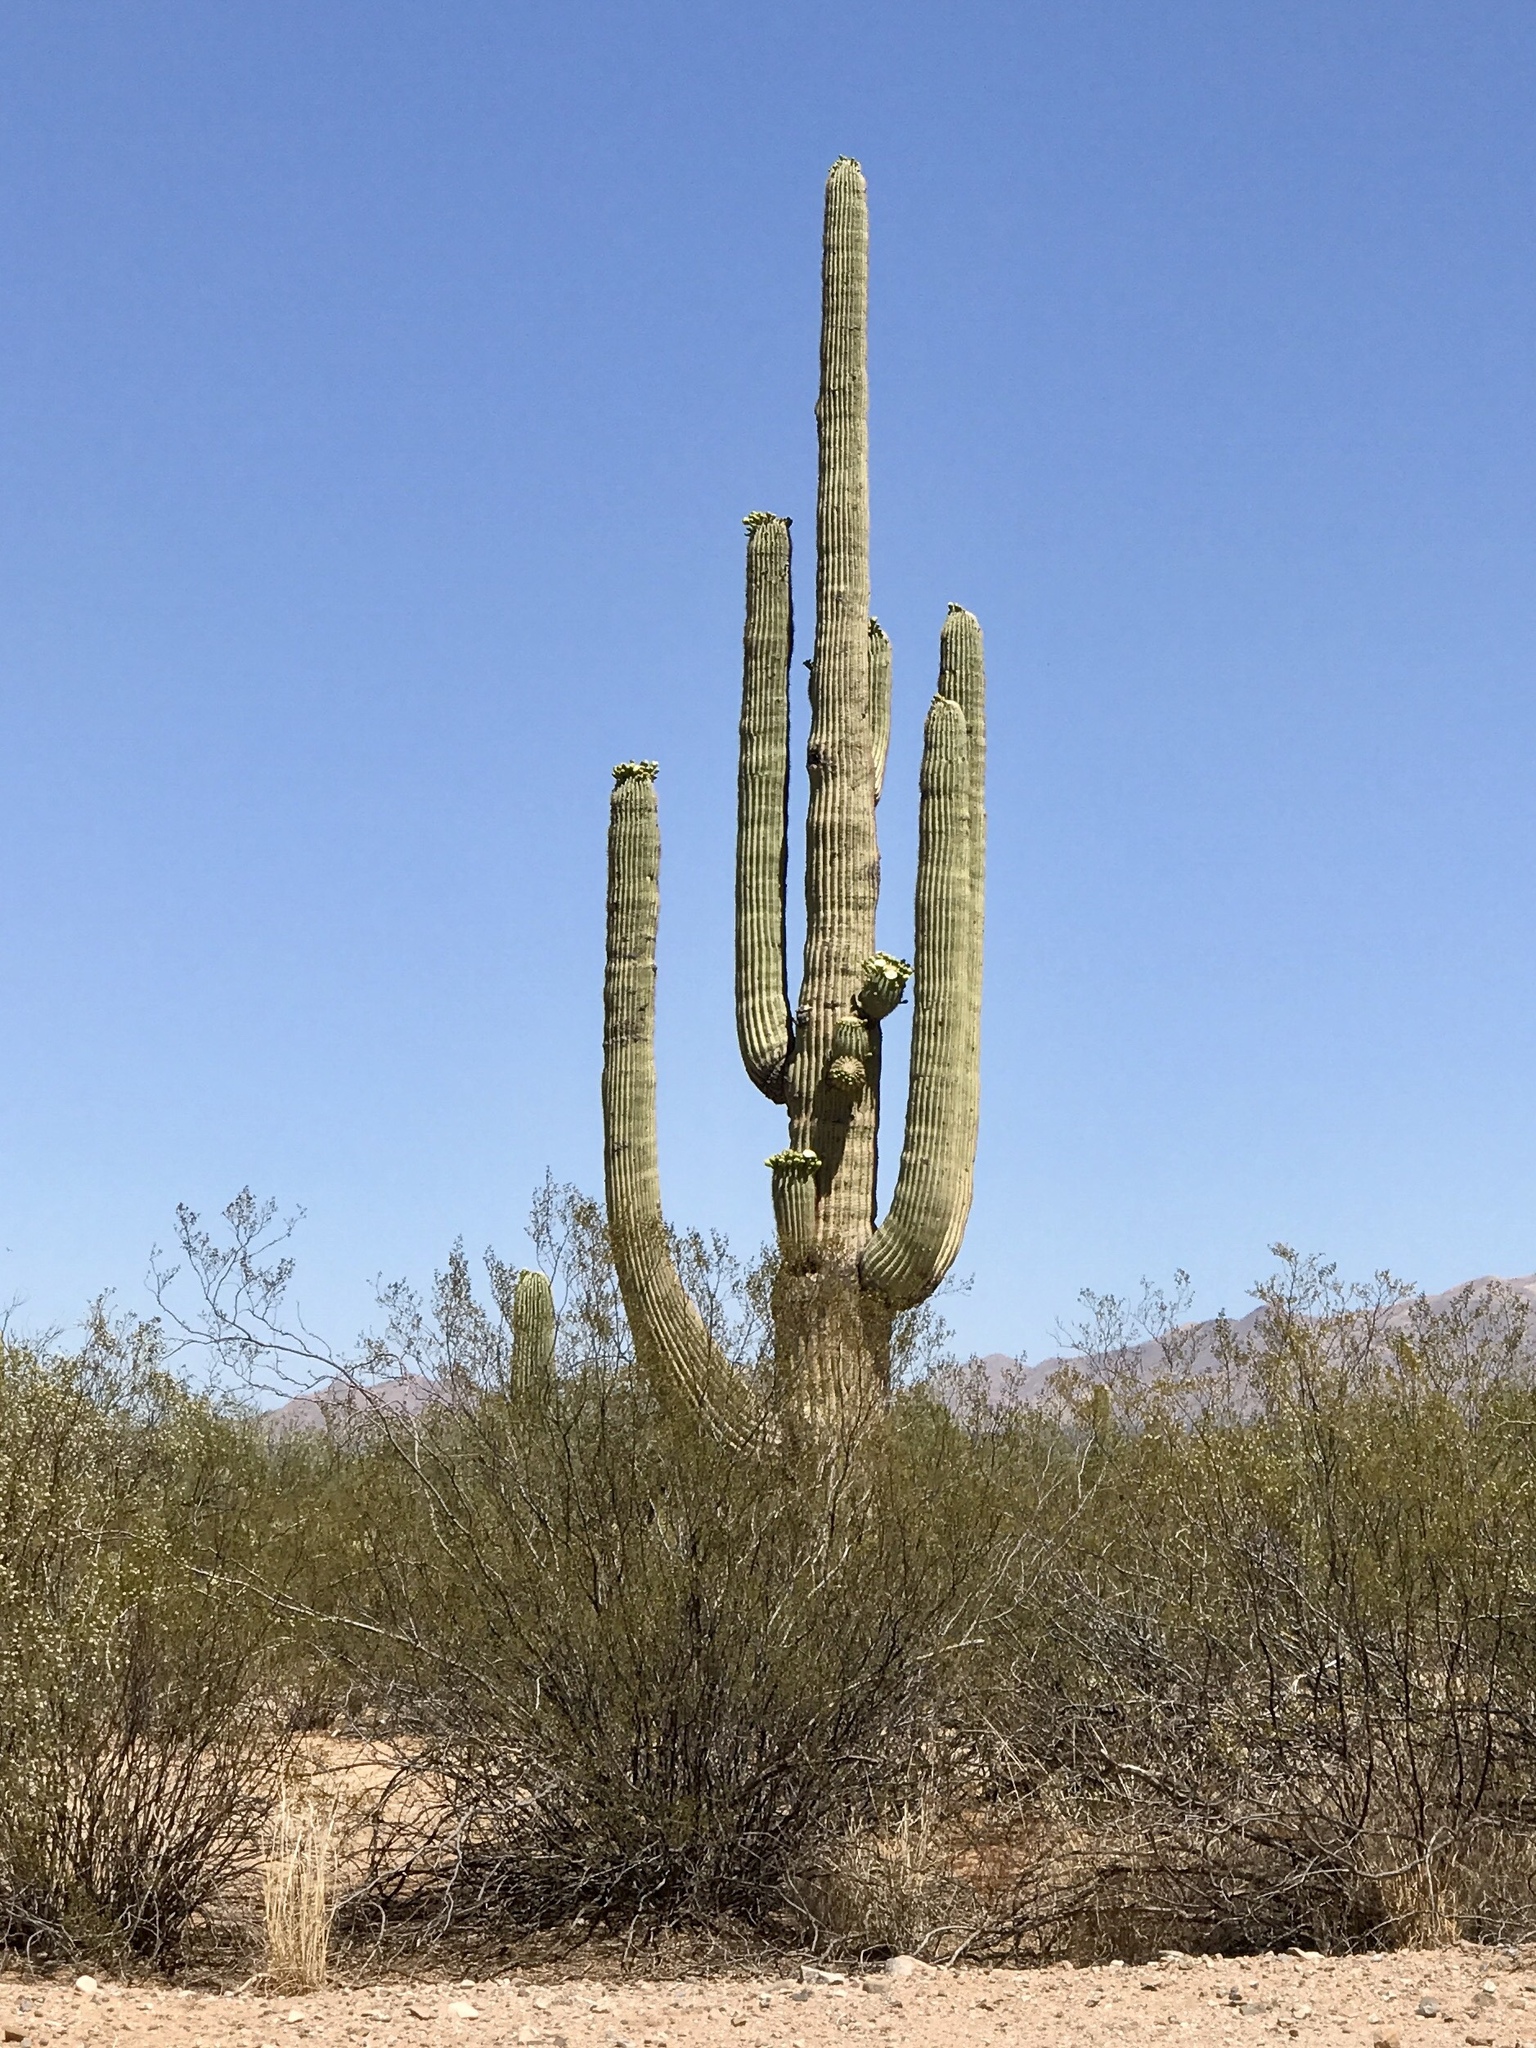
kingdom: Plantae
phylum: Tracheophyta
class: Magnoliopsida
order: Caryophyllales
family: Cactaceae
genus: Carnegiea
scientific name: Carnegiea gigantea
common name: Saguaro
